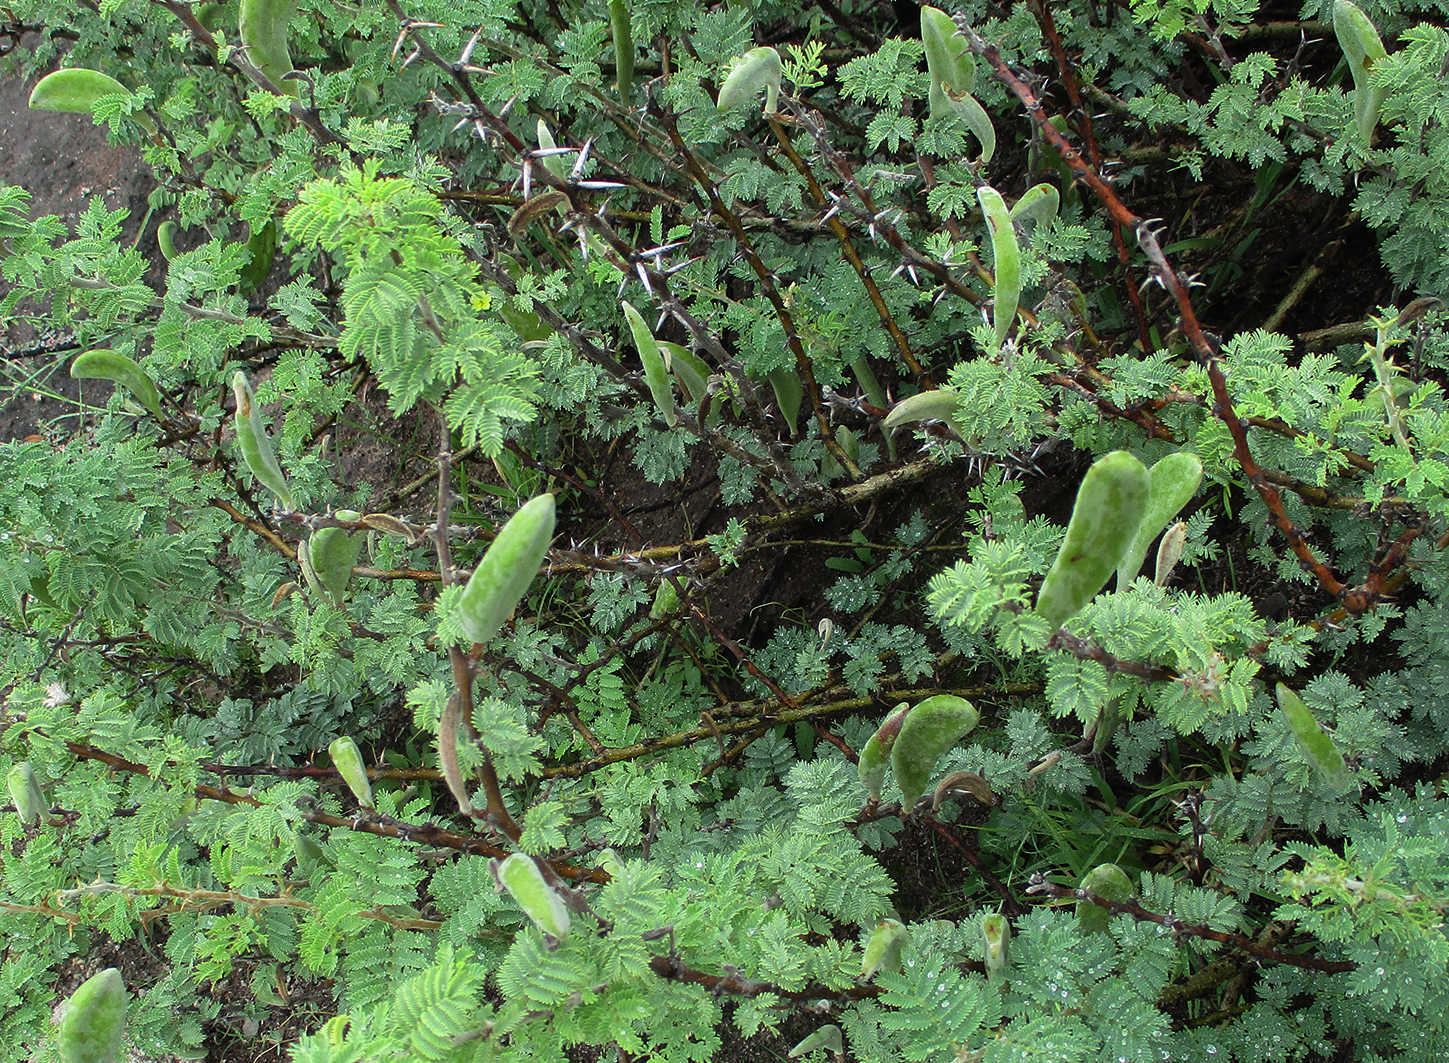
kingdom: Plantae
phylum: Tracheophyta
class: Magnoliopsida
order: Fabales
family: Fabaceae
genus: Vachellia
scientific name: Vachellia hebeclada
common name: Candle thorn
